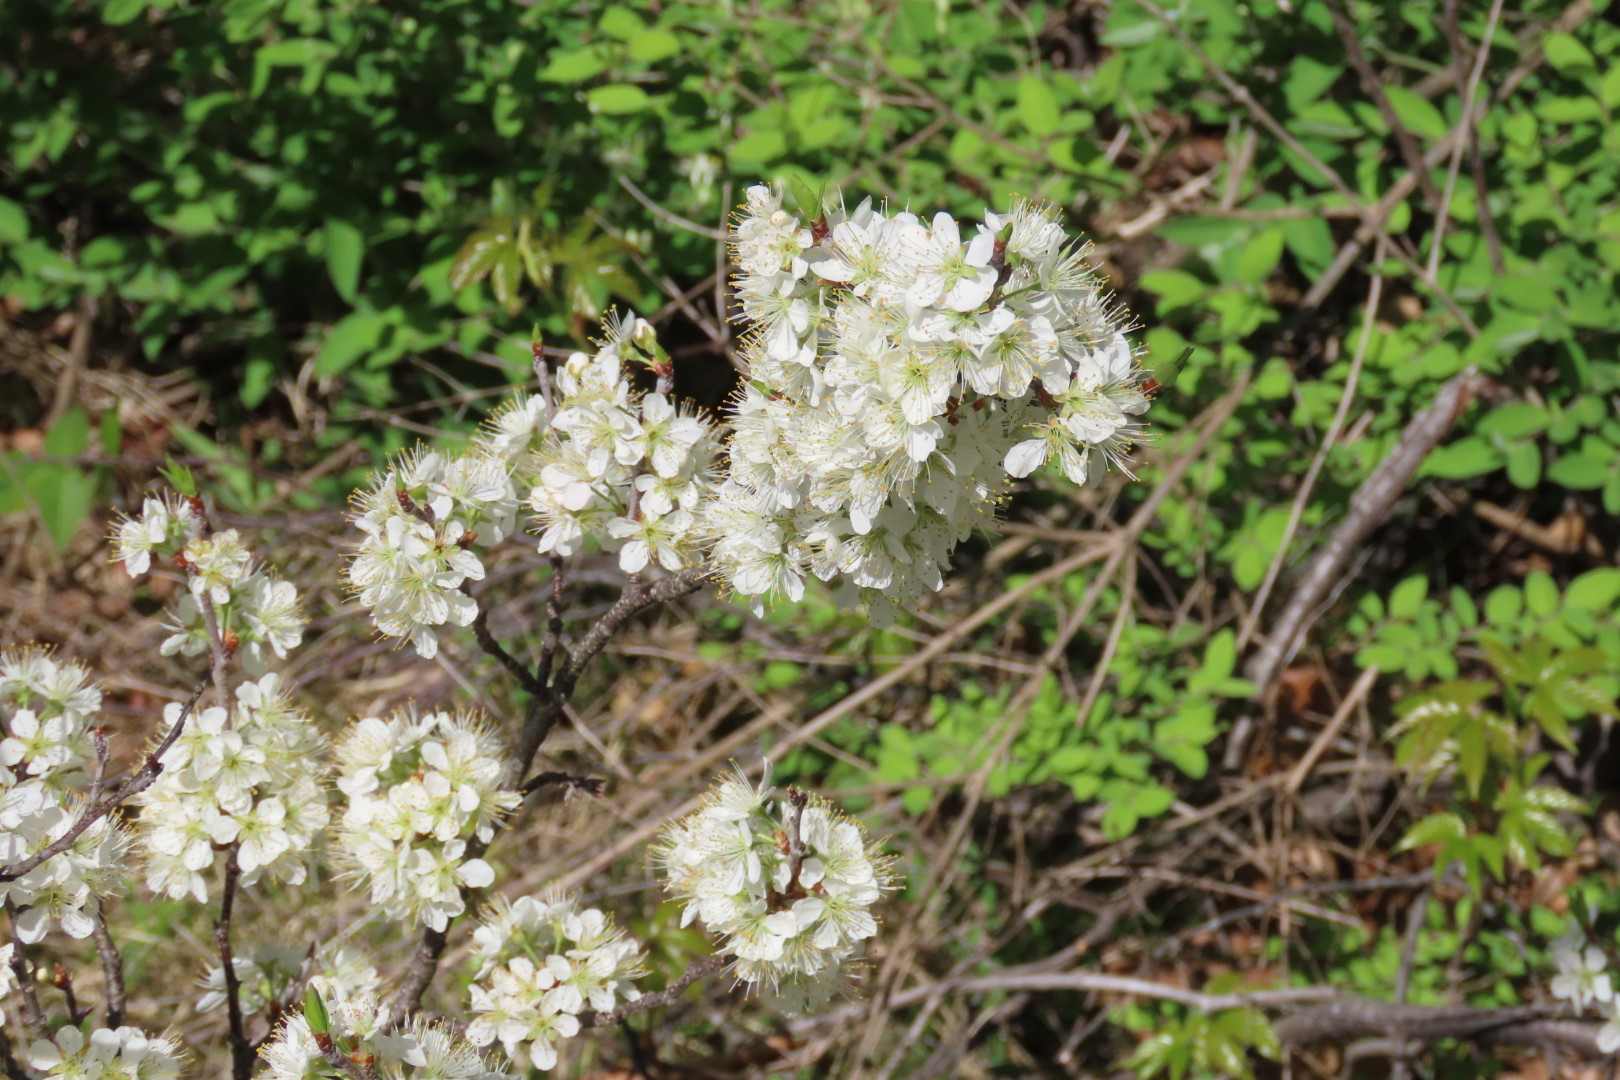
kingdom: Plantae
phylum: Tracheophyta
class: Magnoliopsida
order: Rosales
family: Rosaceae
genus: Prunus
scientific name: Prunus maritima
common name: Beach plum
